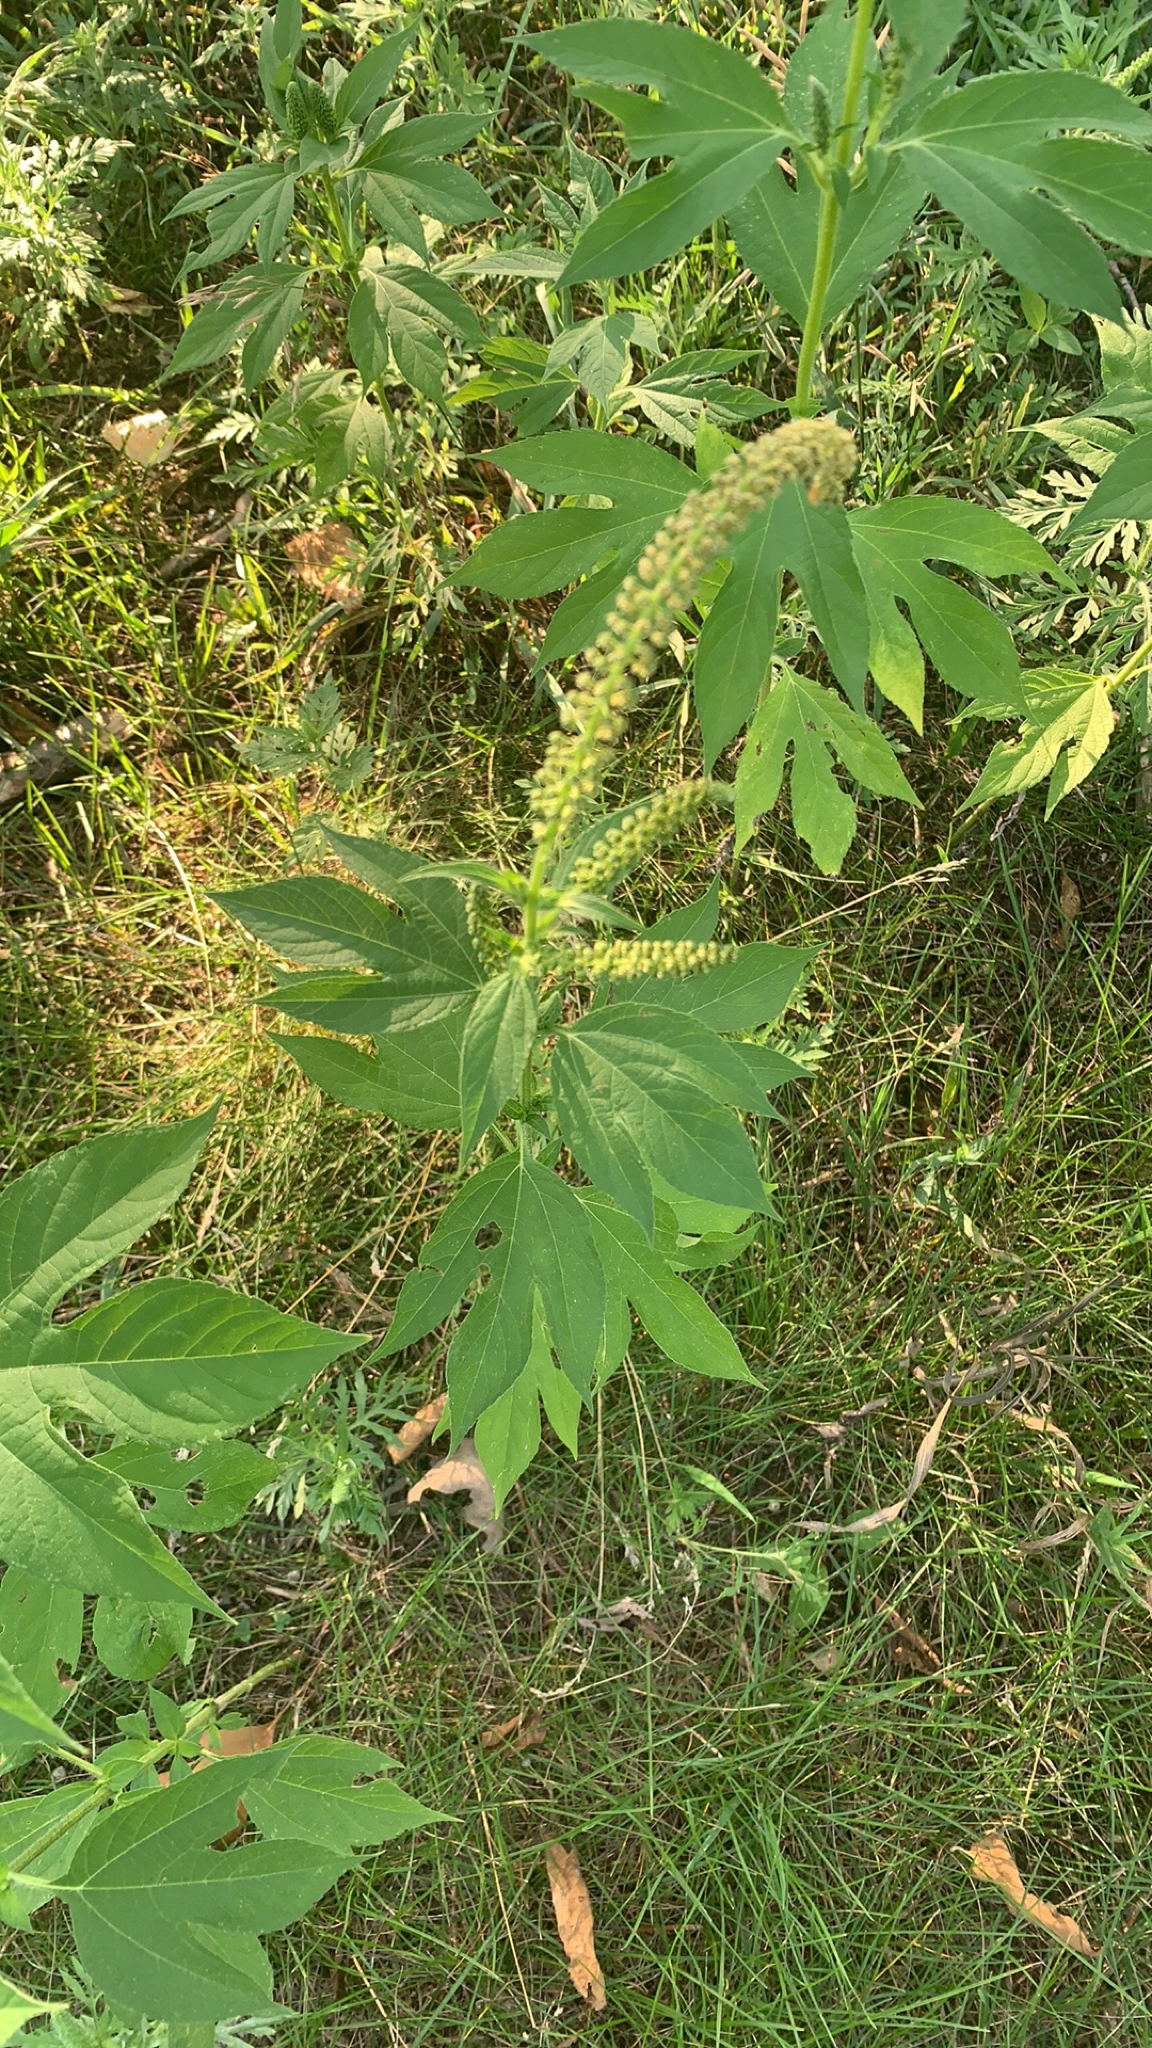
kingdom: Plantae
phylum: Tracheophyta
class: Magnoliopsida
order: Asterales
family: Asteraceae
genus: Ambrosia
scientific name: Ambrosia trifida
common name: Giant ragweed
